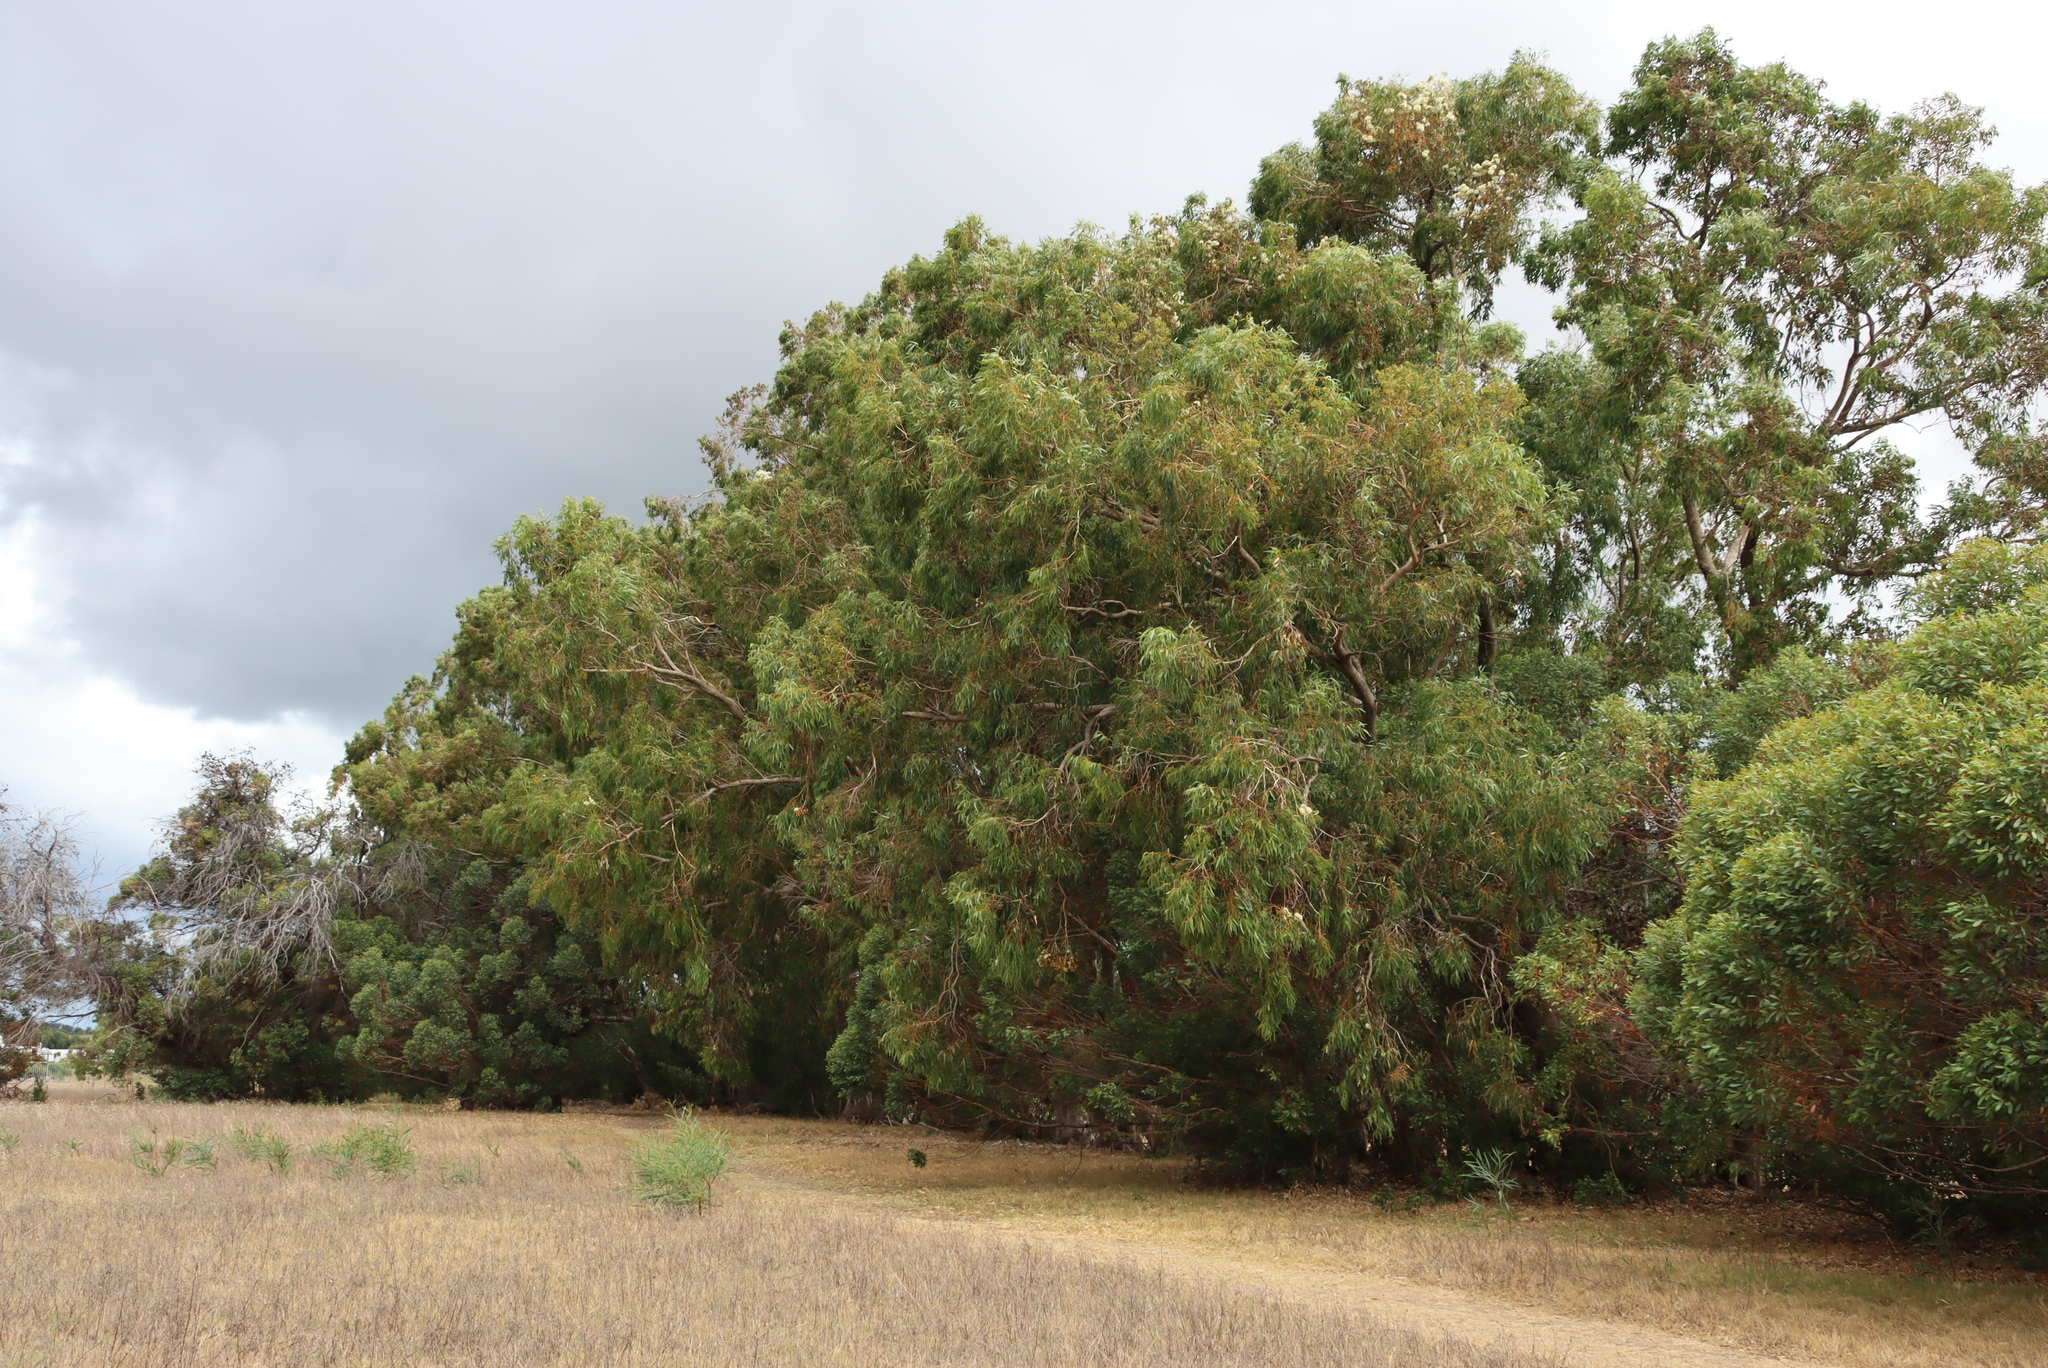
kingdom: Plantae
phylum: Tracheophyta
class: Magnoliopsida
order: Myrtales
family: Myrtaceae
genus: Eucalyptus
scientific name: Eucalyptus gomphocephala
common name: Tuart
